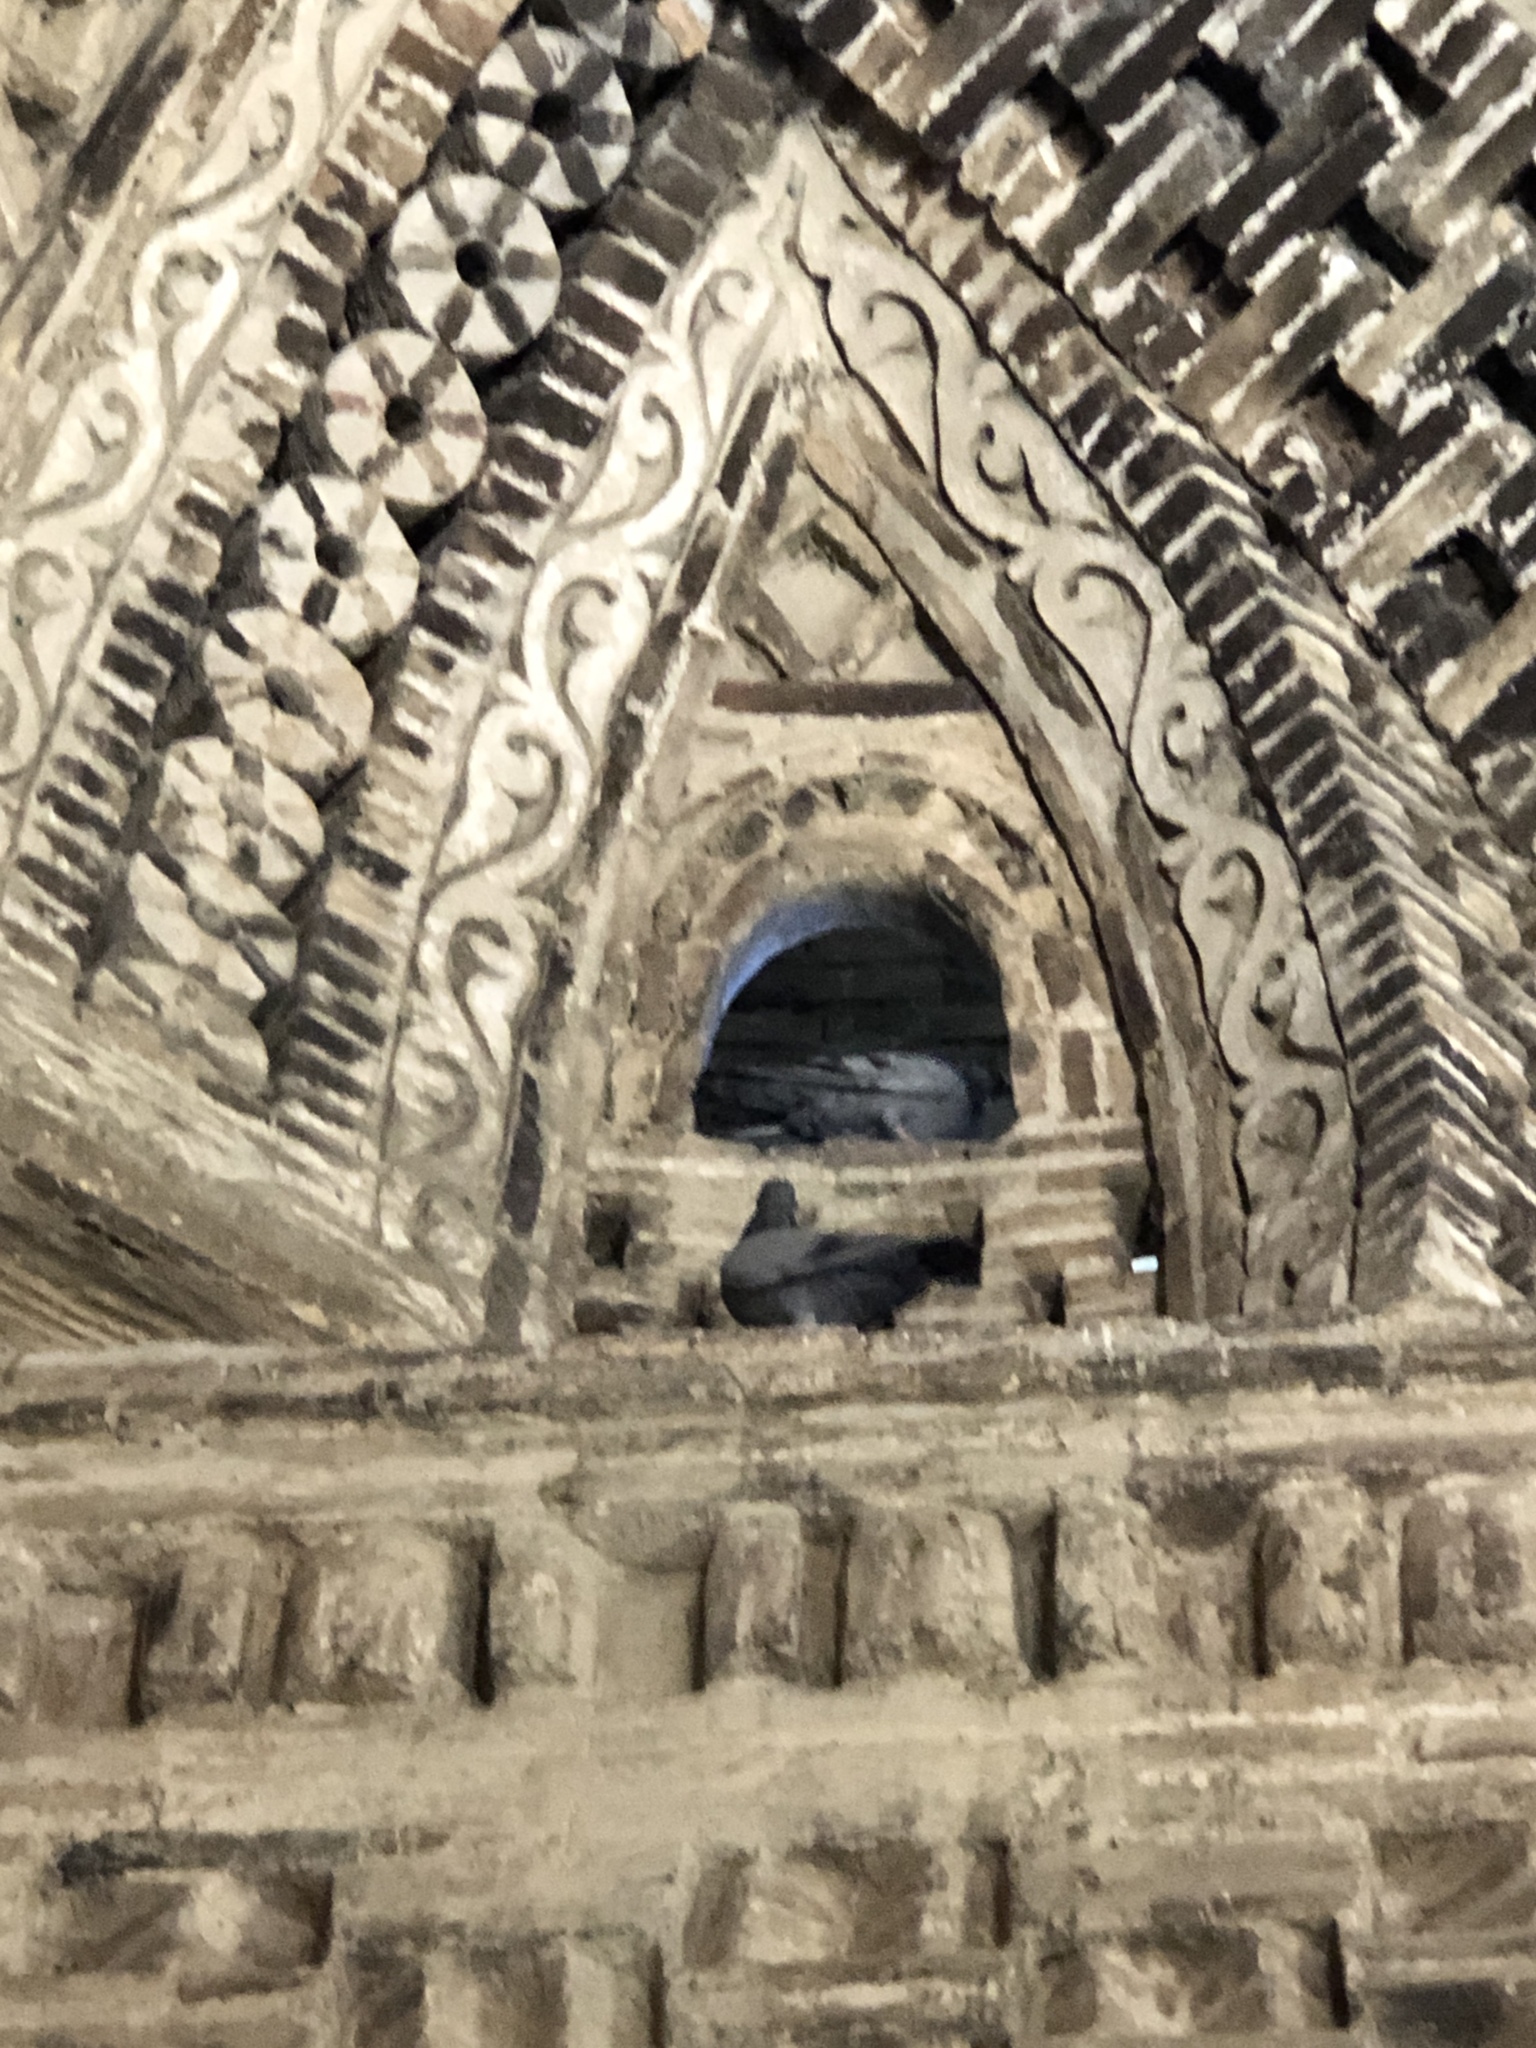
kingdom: Animalia
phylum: Chordata
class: Aves
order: Columbiformes
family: Columbidae
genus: Columba
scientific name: Columba livia
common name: Rock pigeon
